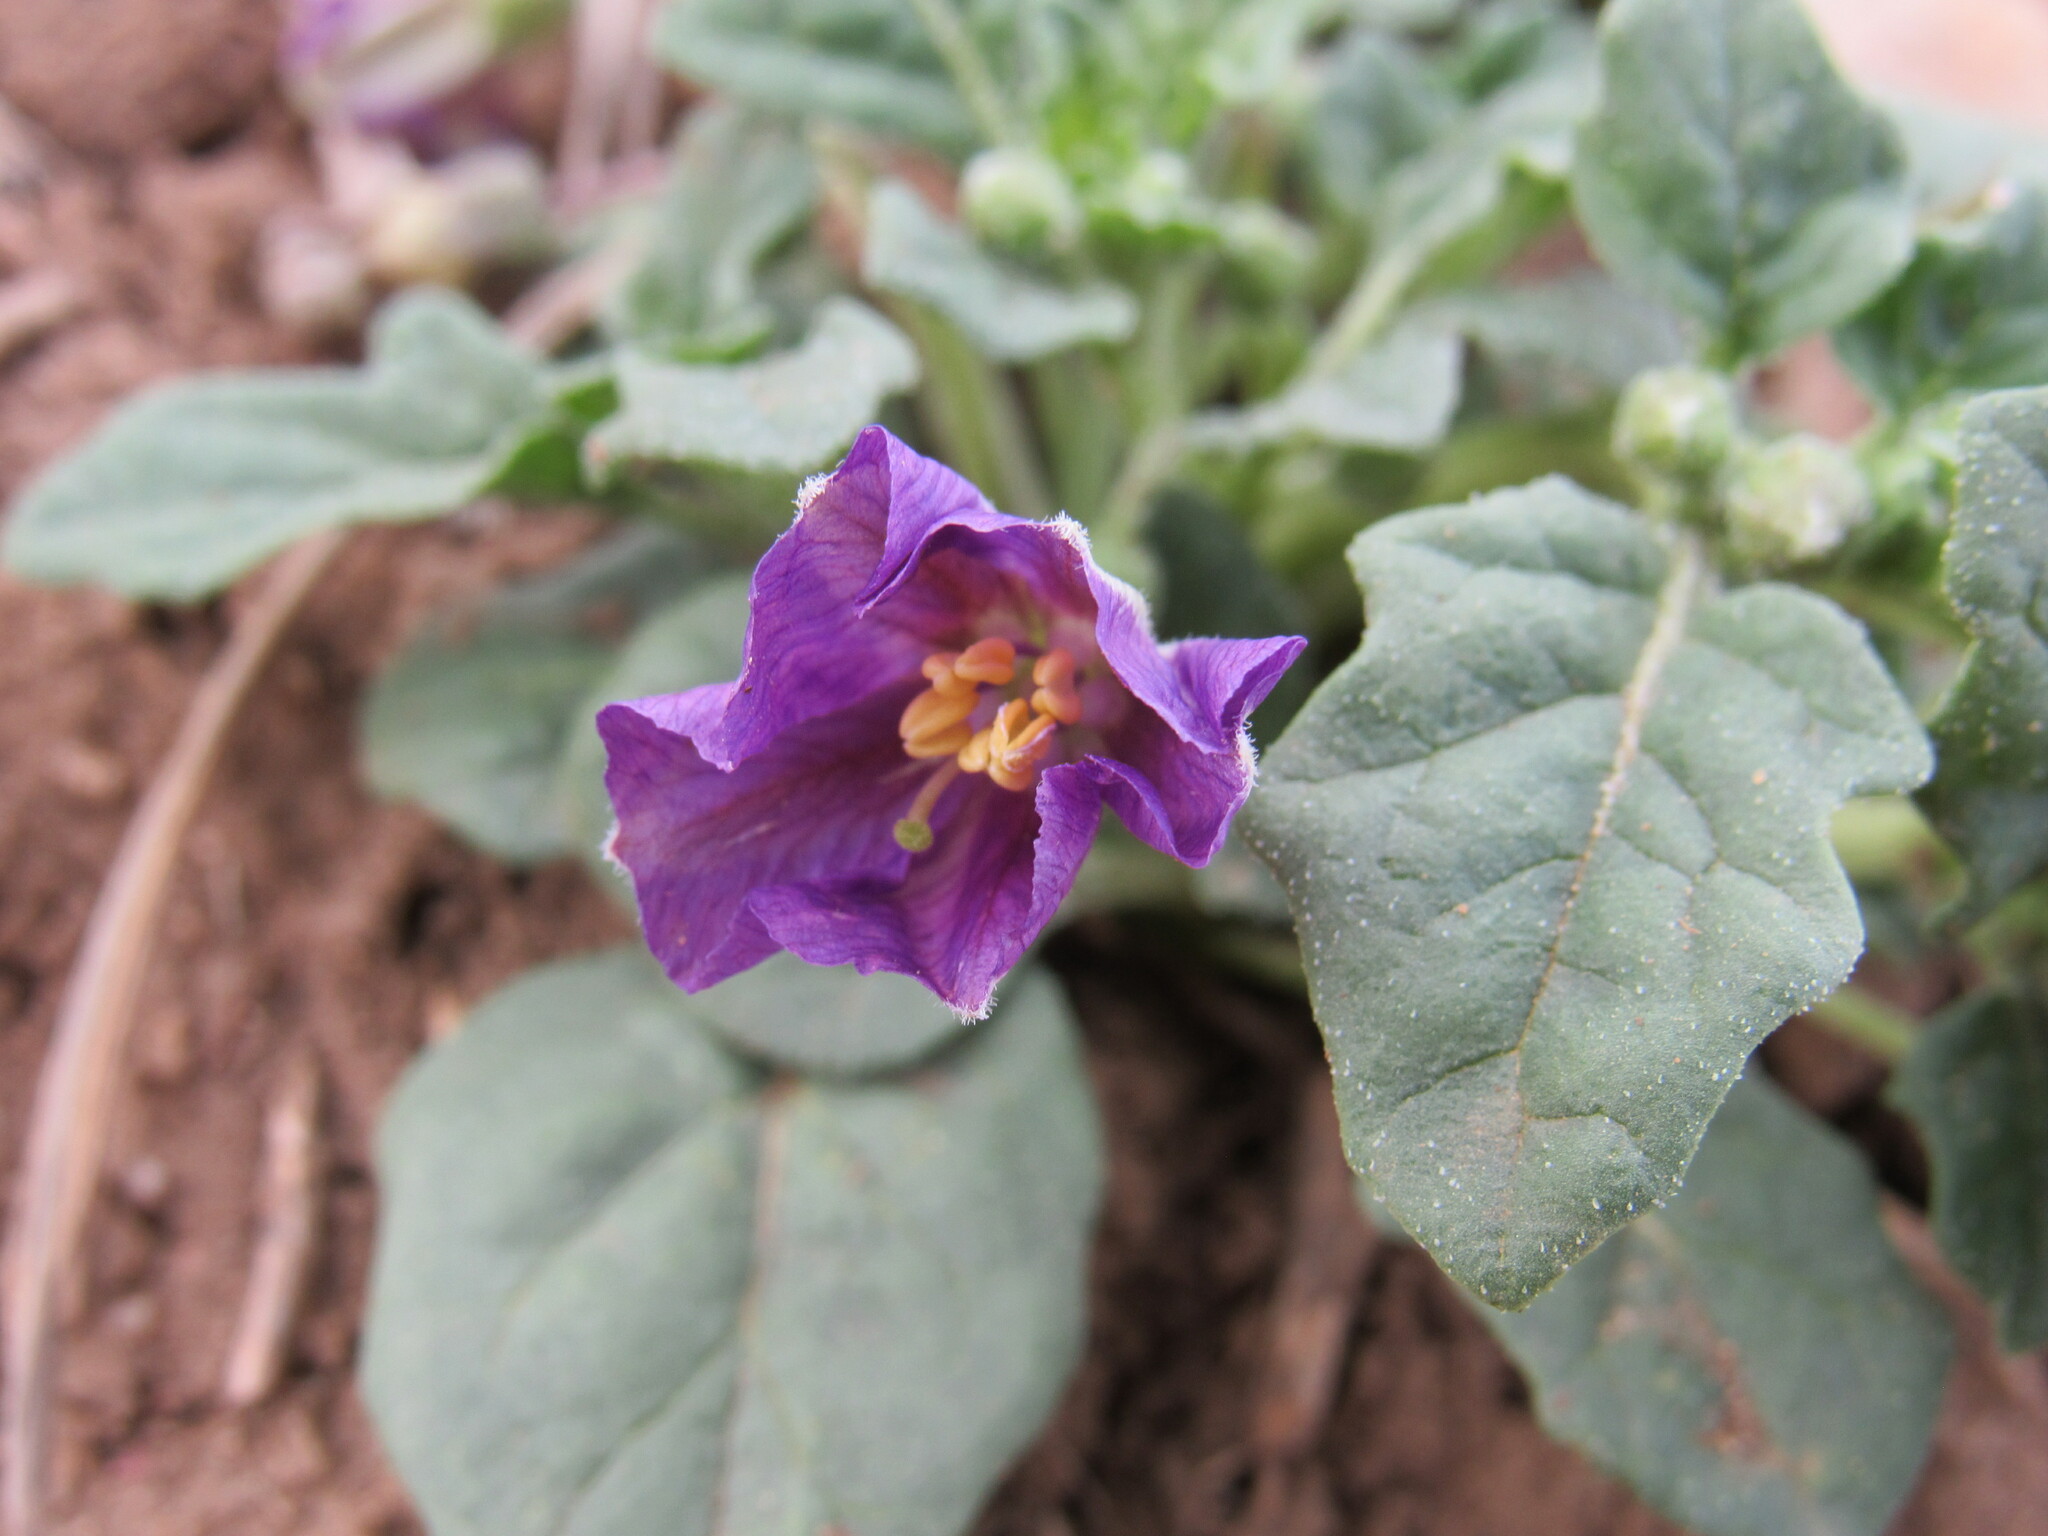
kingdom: Plantae
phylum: Tracheophyta
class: Magnoliopsida
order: Solanales
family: Solanaceae
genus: Quincula
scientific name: Quincula lobata
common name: Purple-ground-cherry
